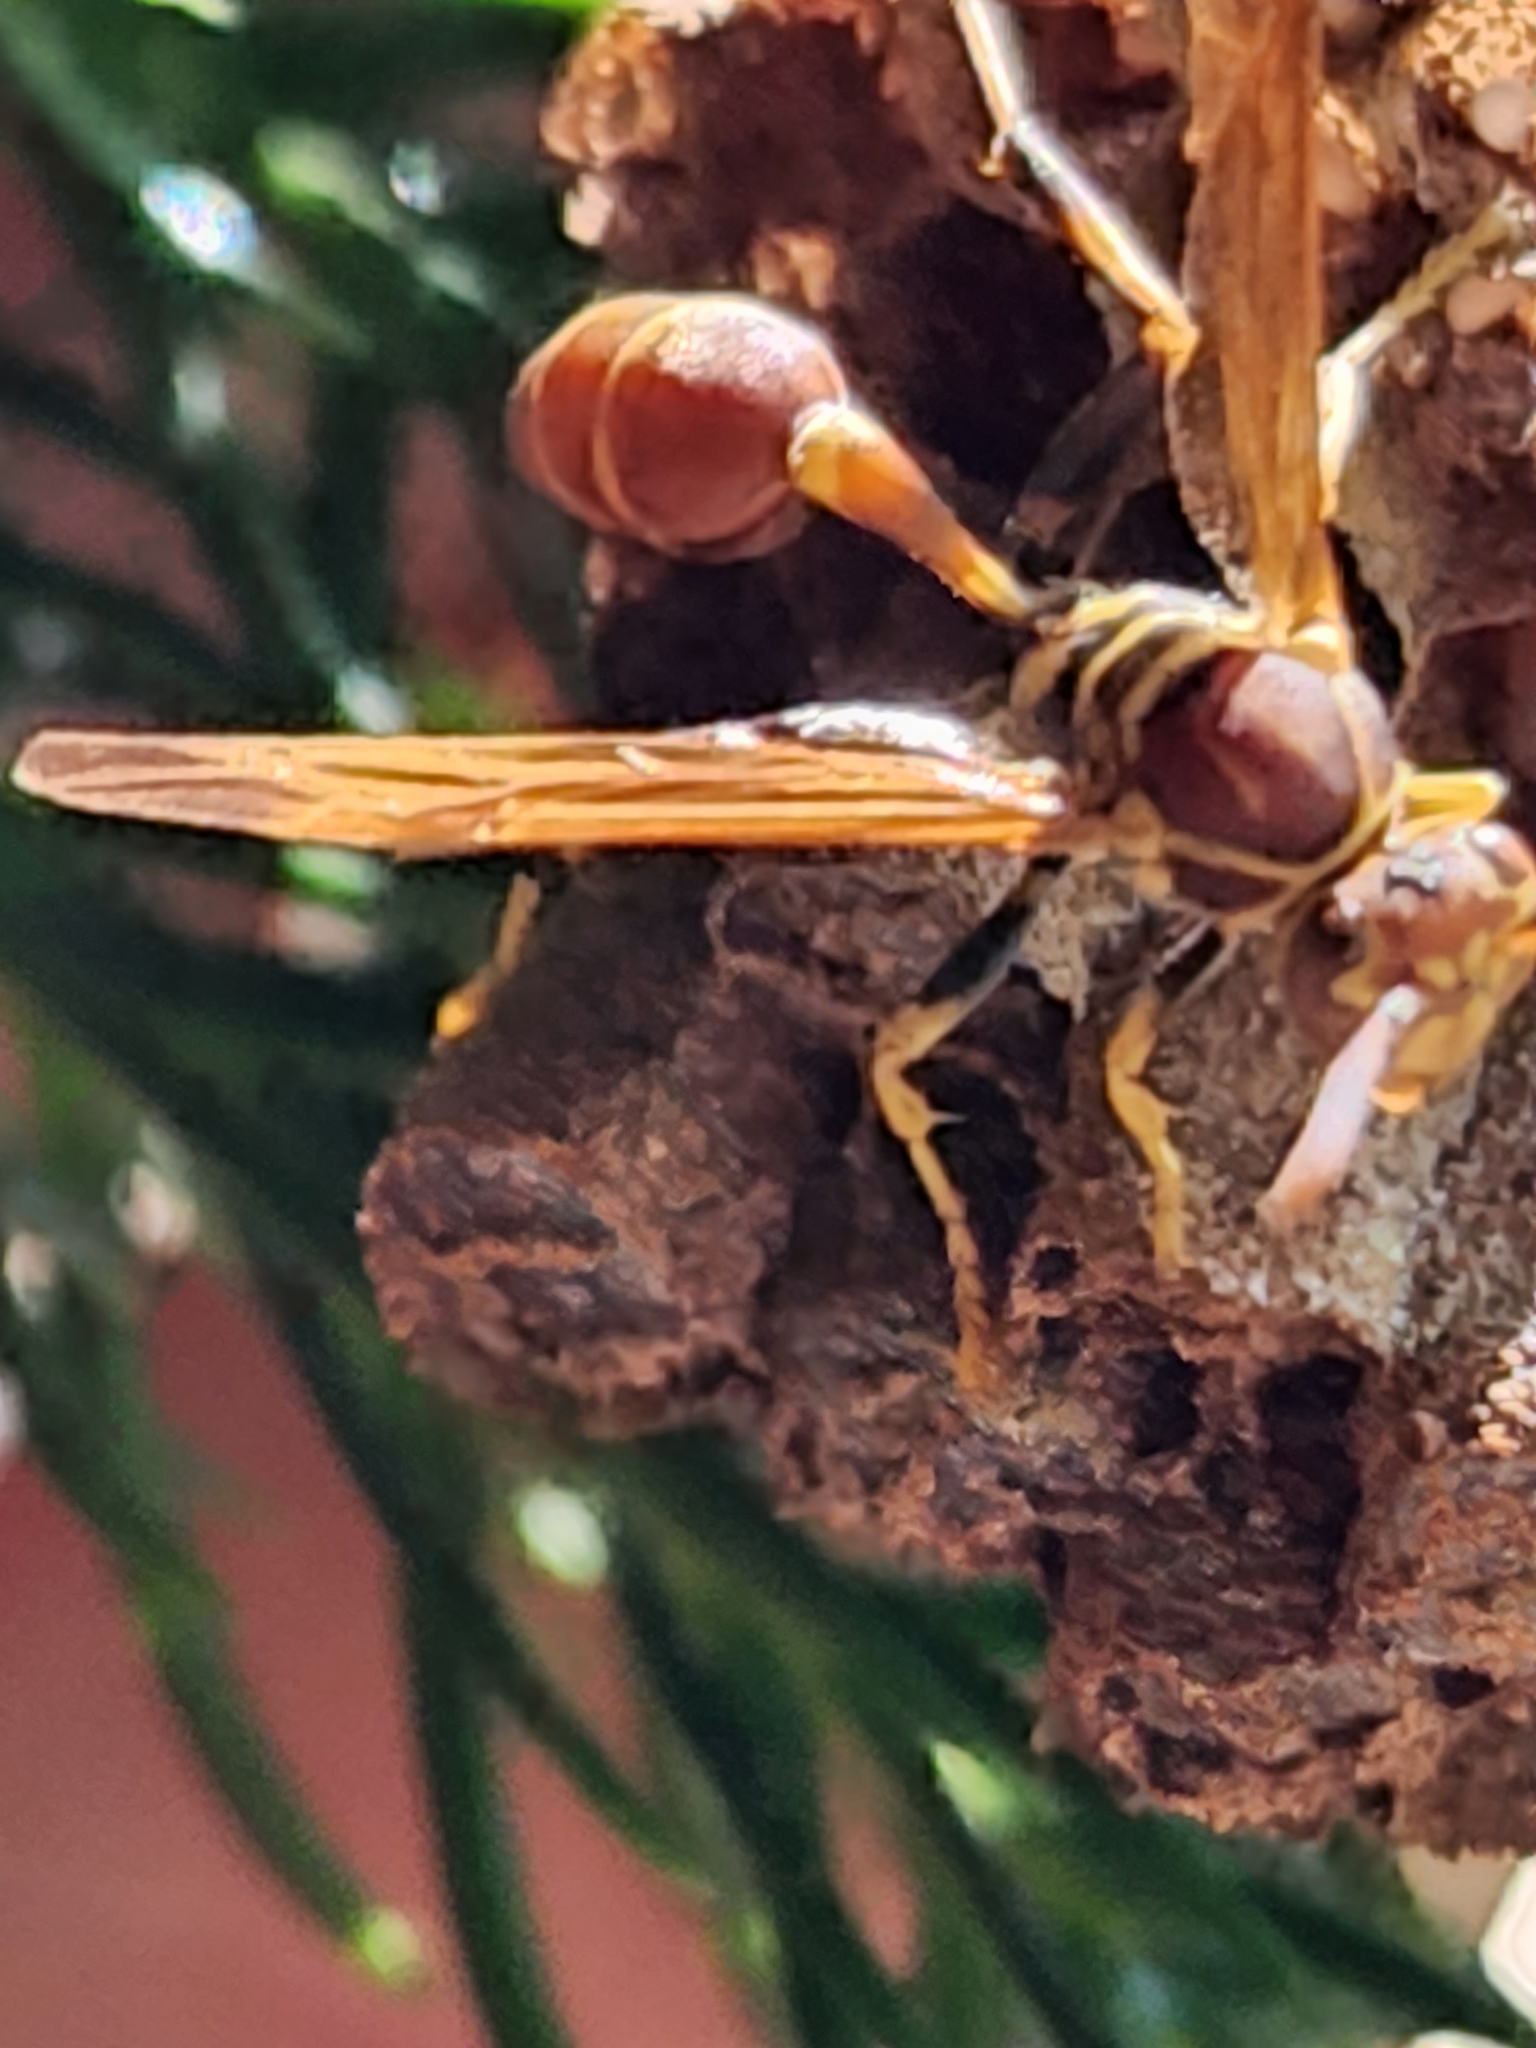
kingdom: Animalia
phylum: Arthropoda
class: Insecta
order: Hymenoptera
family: Vespidae
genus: Mischocyttarus
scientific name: Mischocyttarus mexicanus
